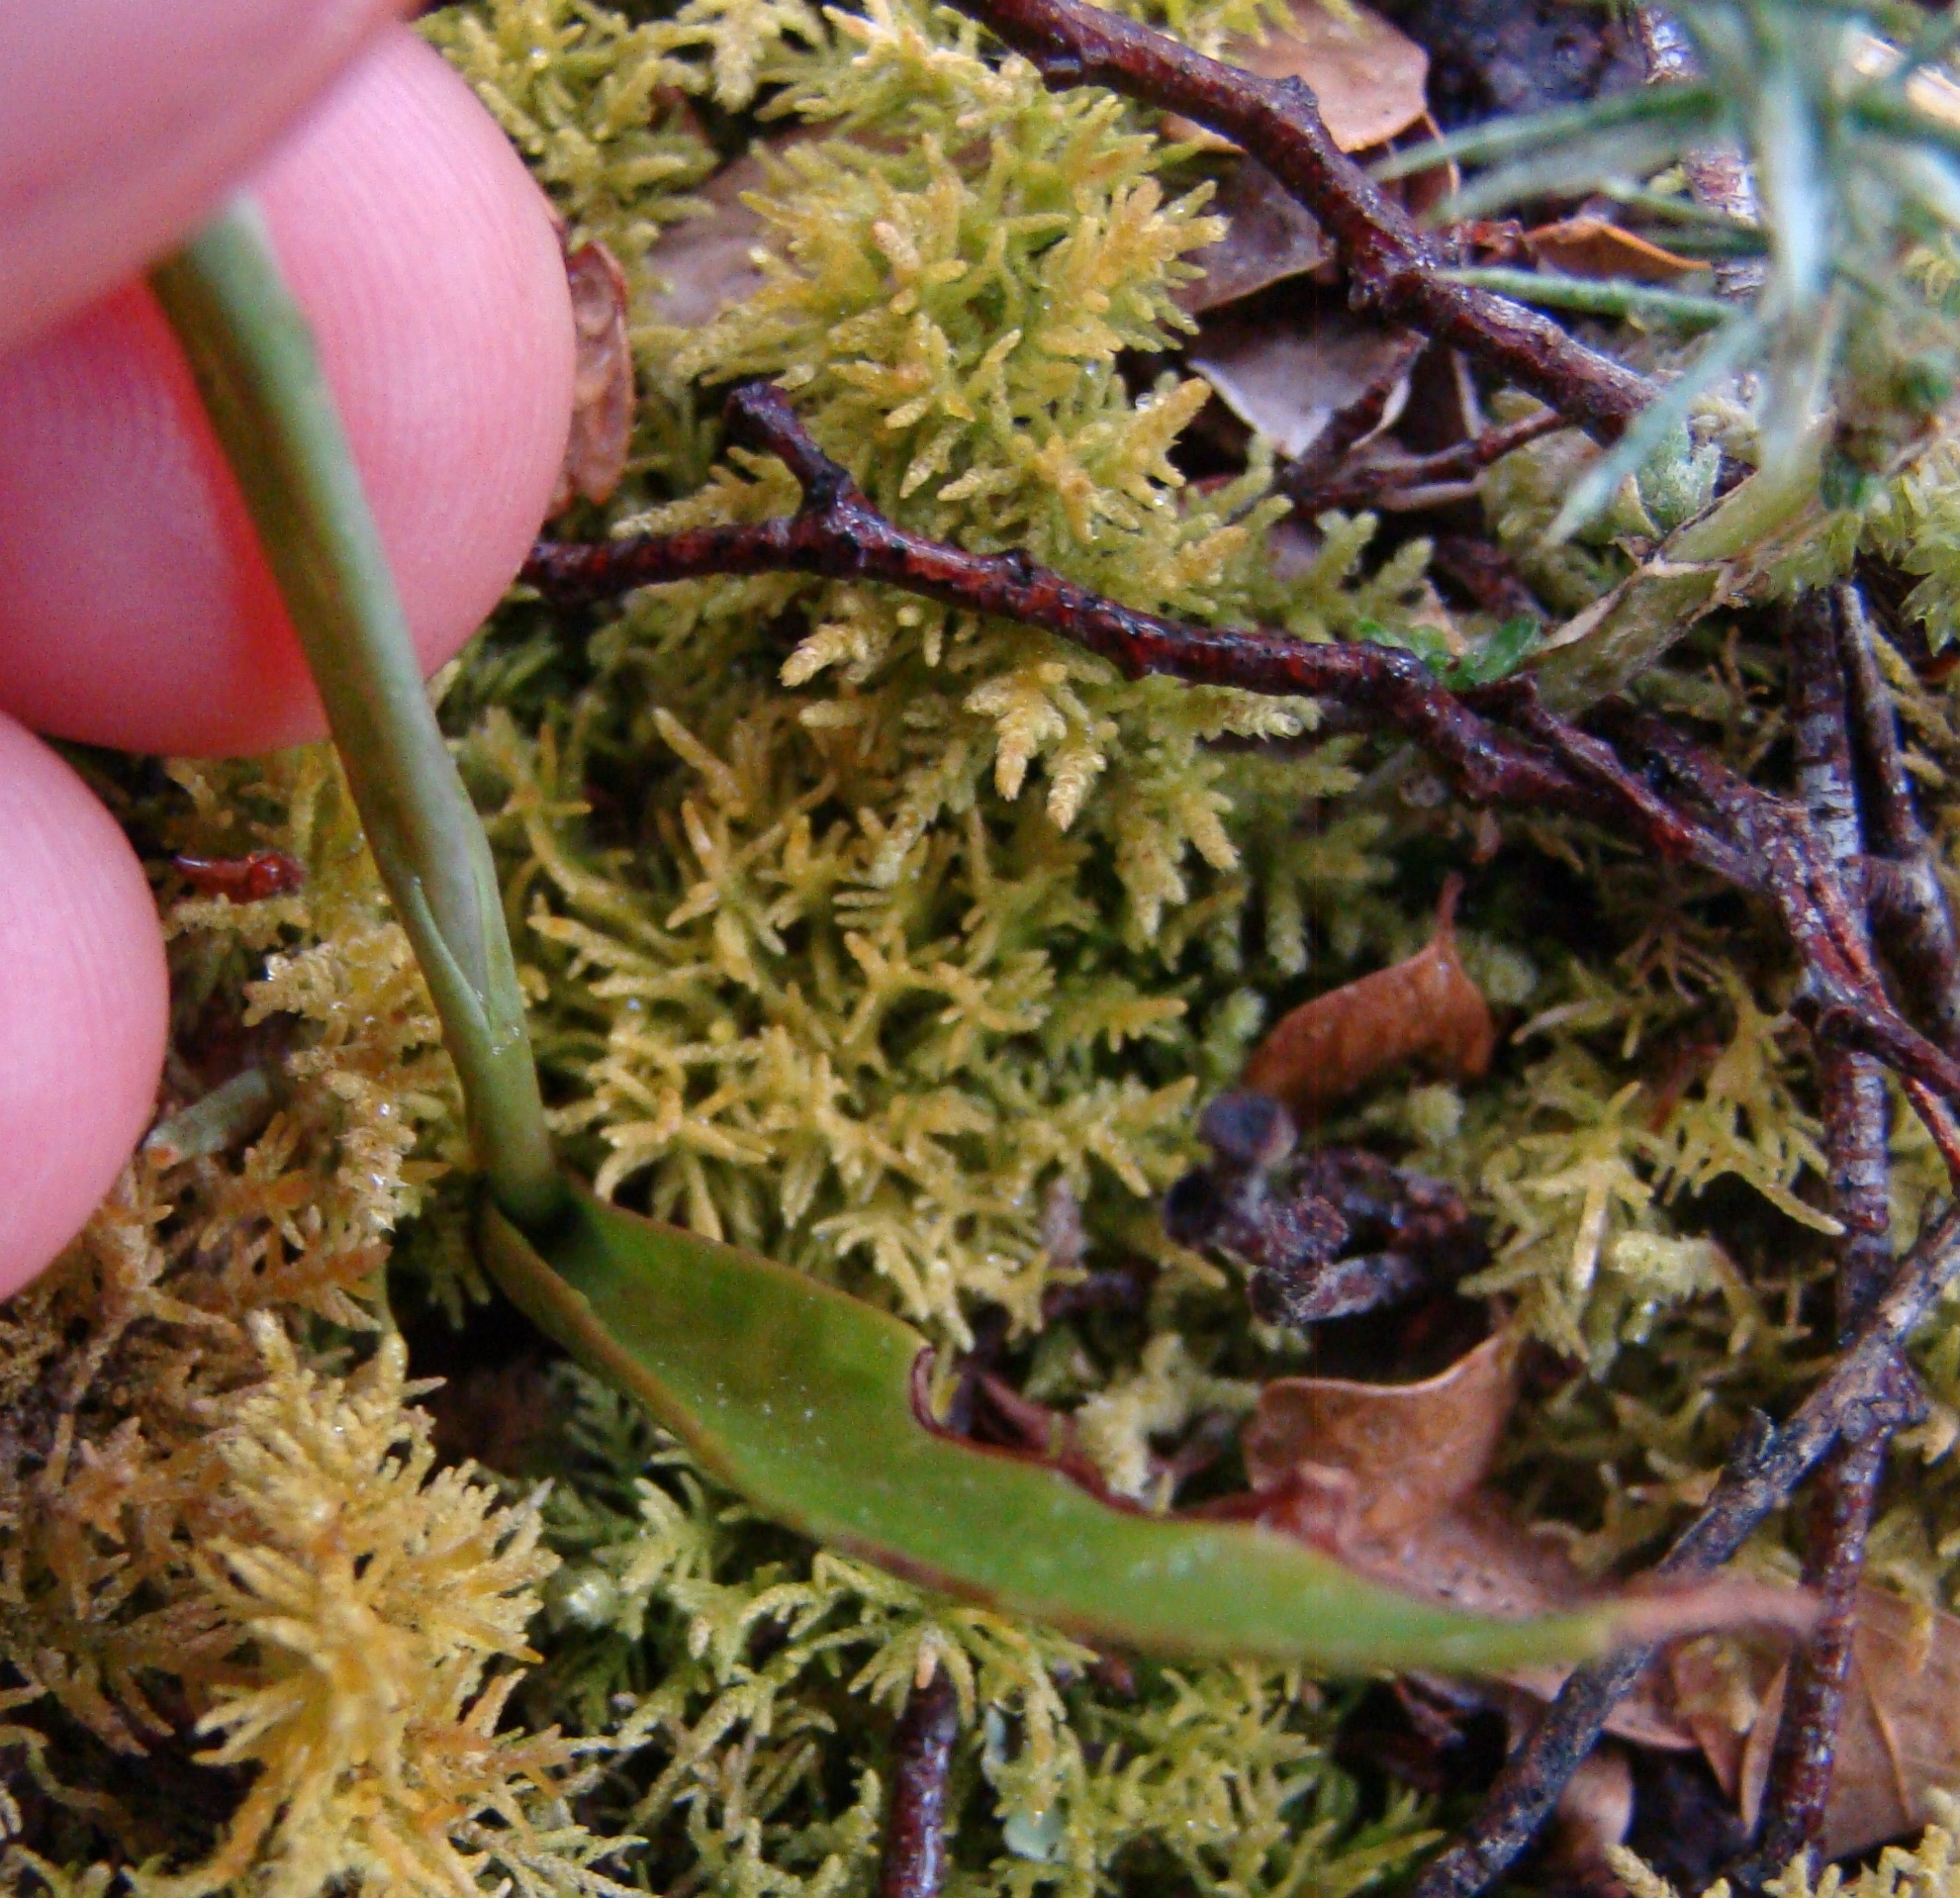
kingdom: Plantae
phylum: Tracheophyta
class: Liliopsida
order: Asparagales
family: Orchidaceae
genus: Thelymitra
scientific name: Thelymitra longifolia
